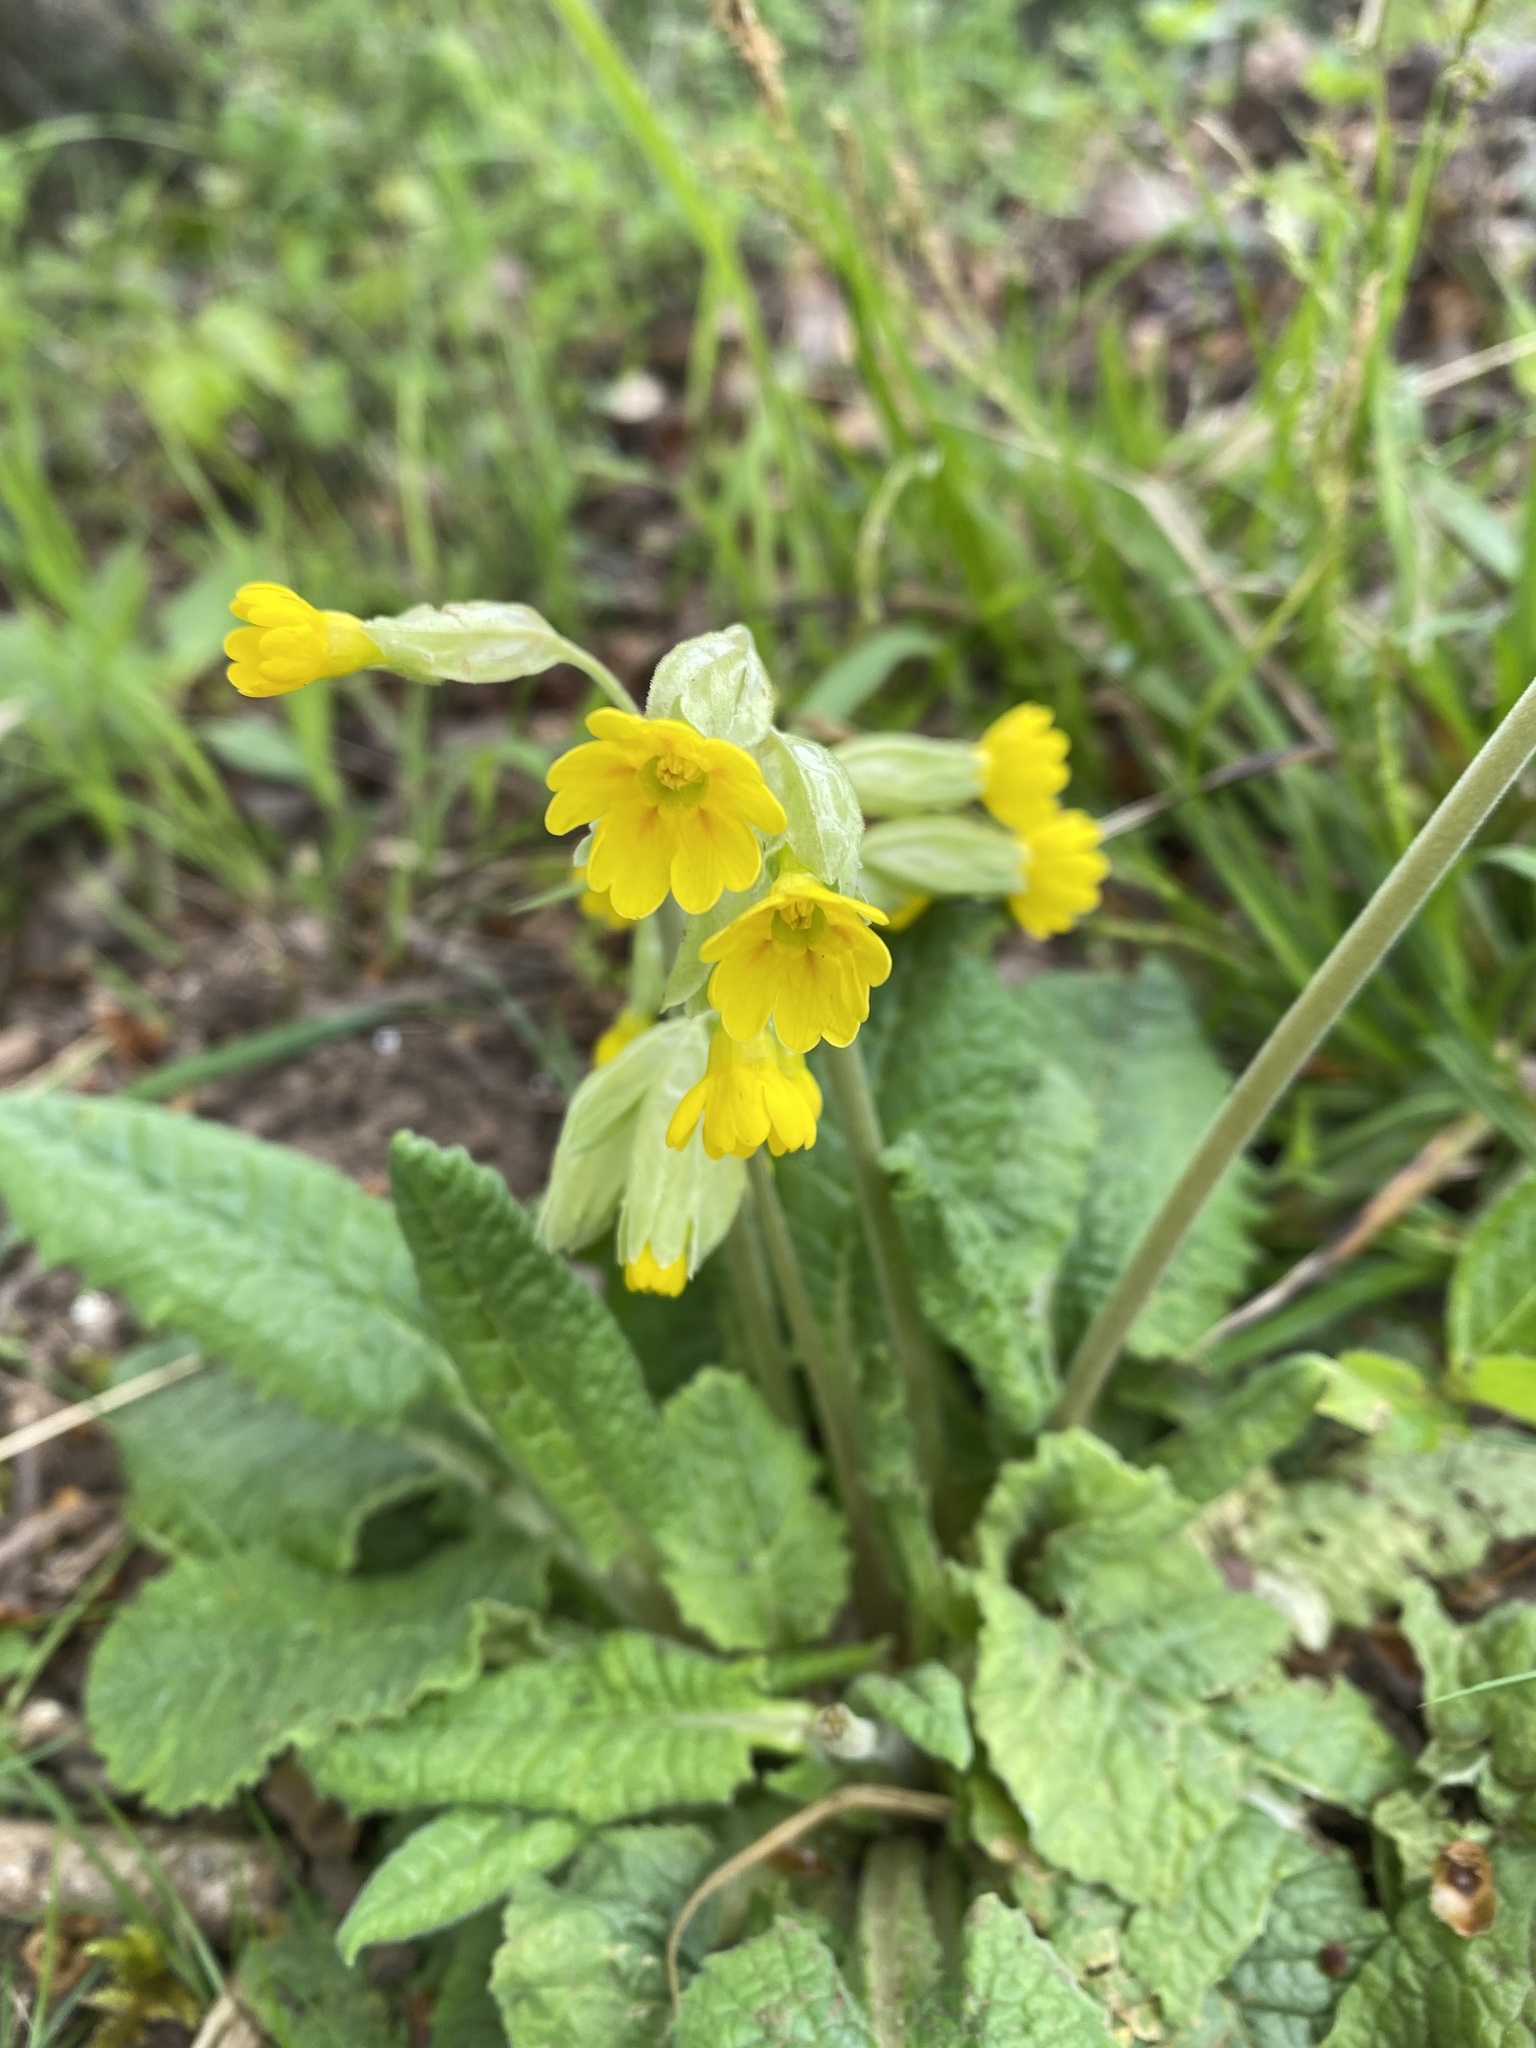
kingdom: Plantae
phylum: Tracheophyta
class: Magnoliopsida
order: Ericales
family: Primulaceae
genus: Primula
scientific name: Primula veris
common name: Cowslip
